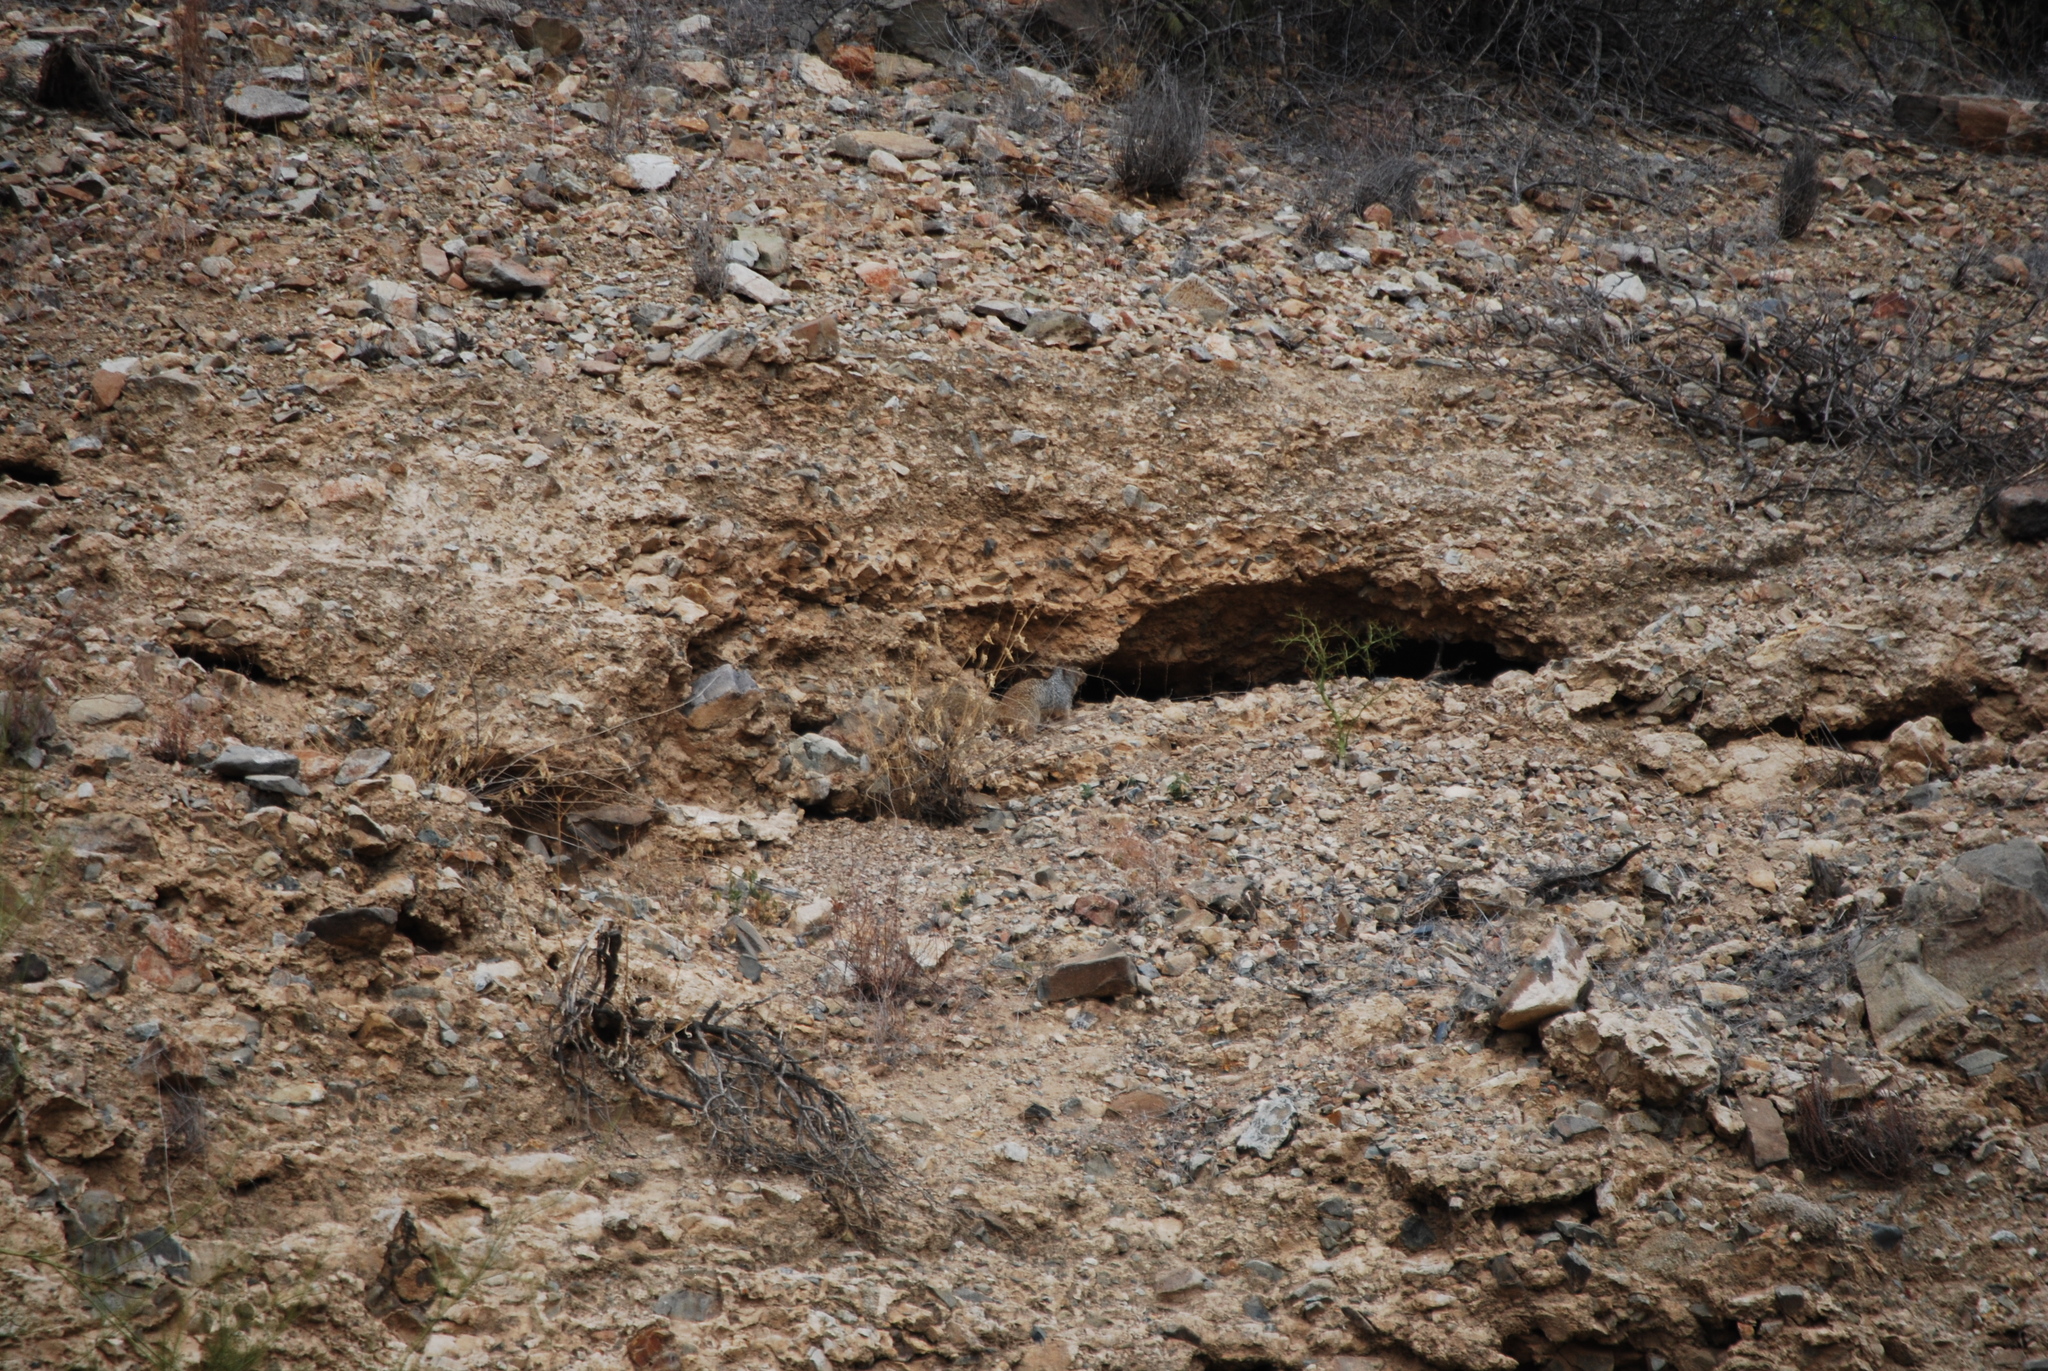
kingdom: Animalia
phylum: Chordata
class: Mammalia
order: Rodentia
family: Sciuridae
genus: Otospermophilus
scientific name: Otospermophilus variegatus
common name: Rock squirrel
